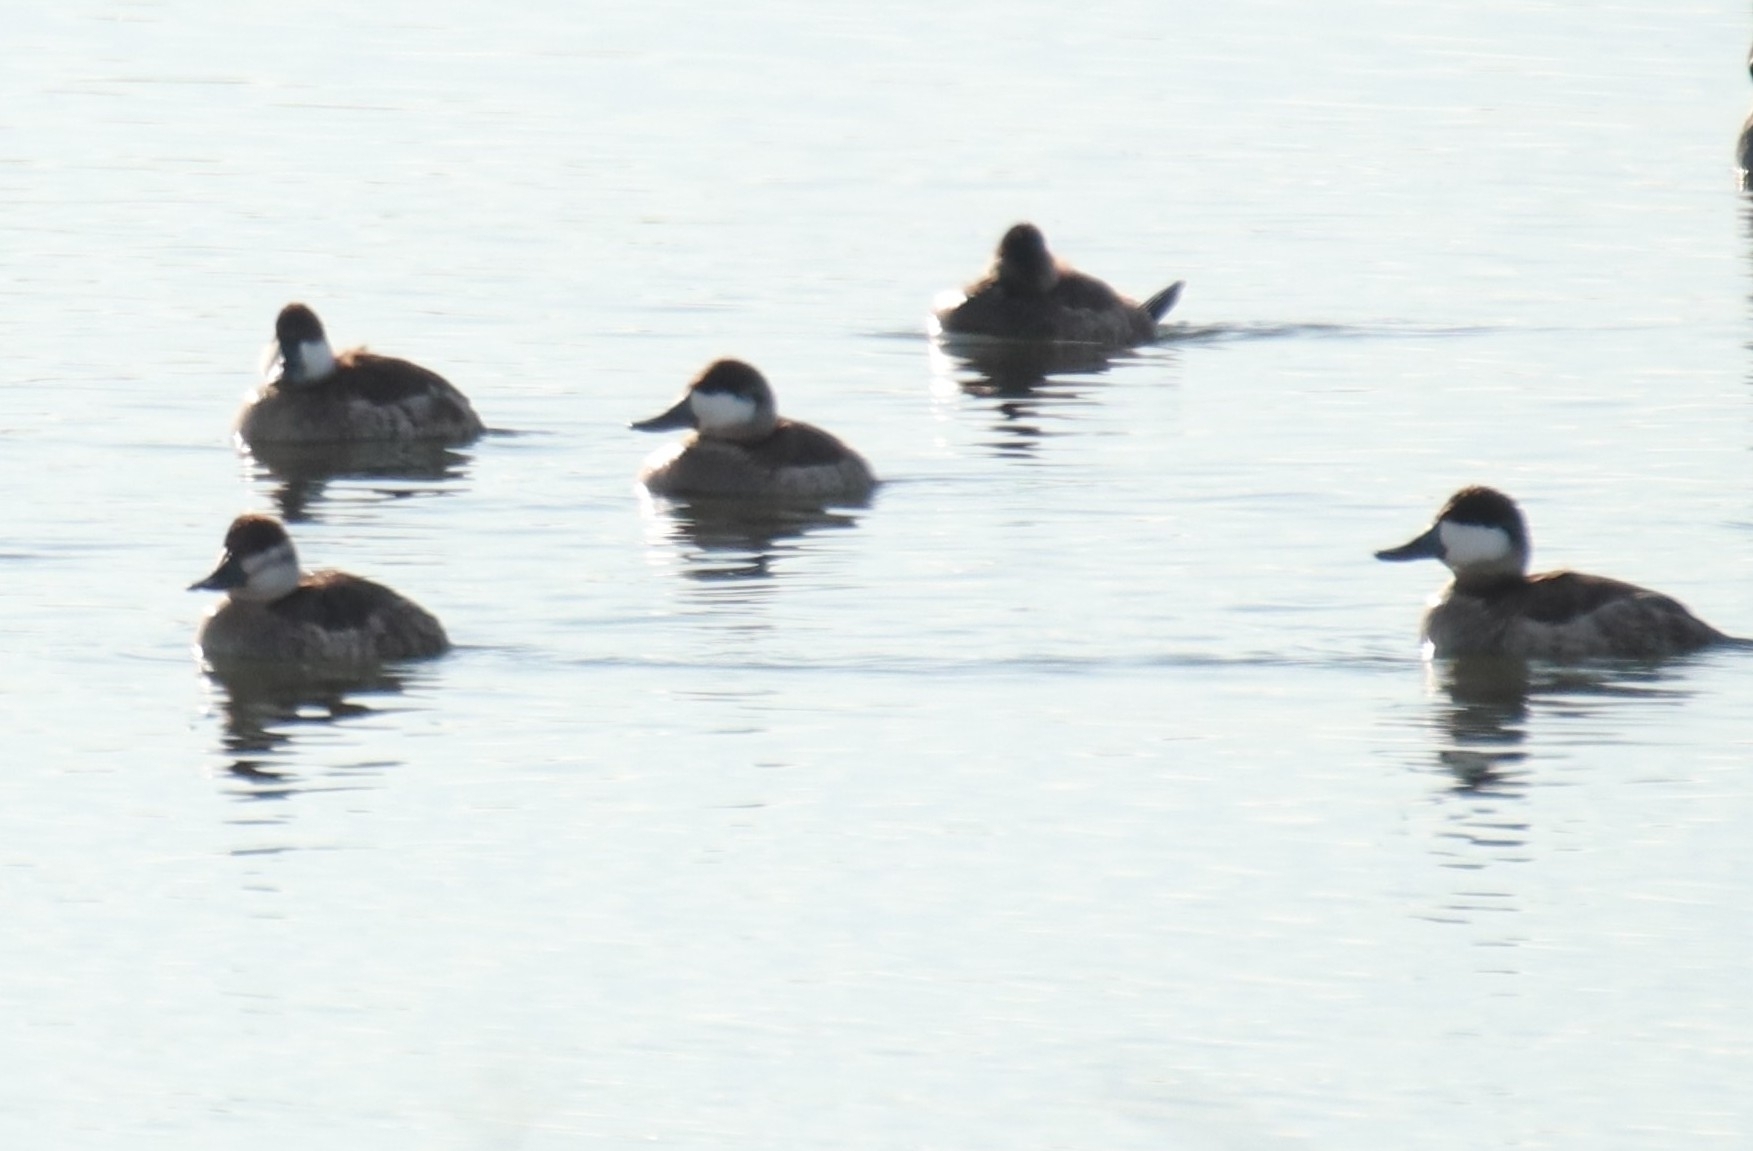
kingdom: Animalia
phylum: Chordata
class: Aves
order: Anseriformes
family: Anatidae
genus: Oxyura
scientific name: Oxyura jamaicensis
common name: Ruddy duck
